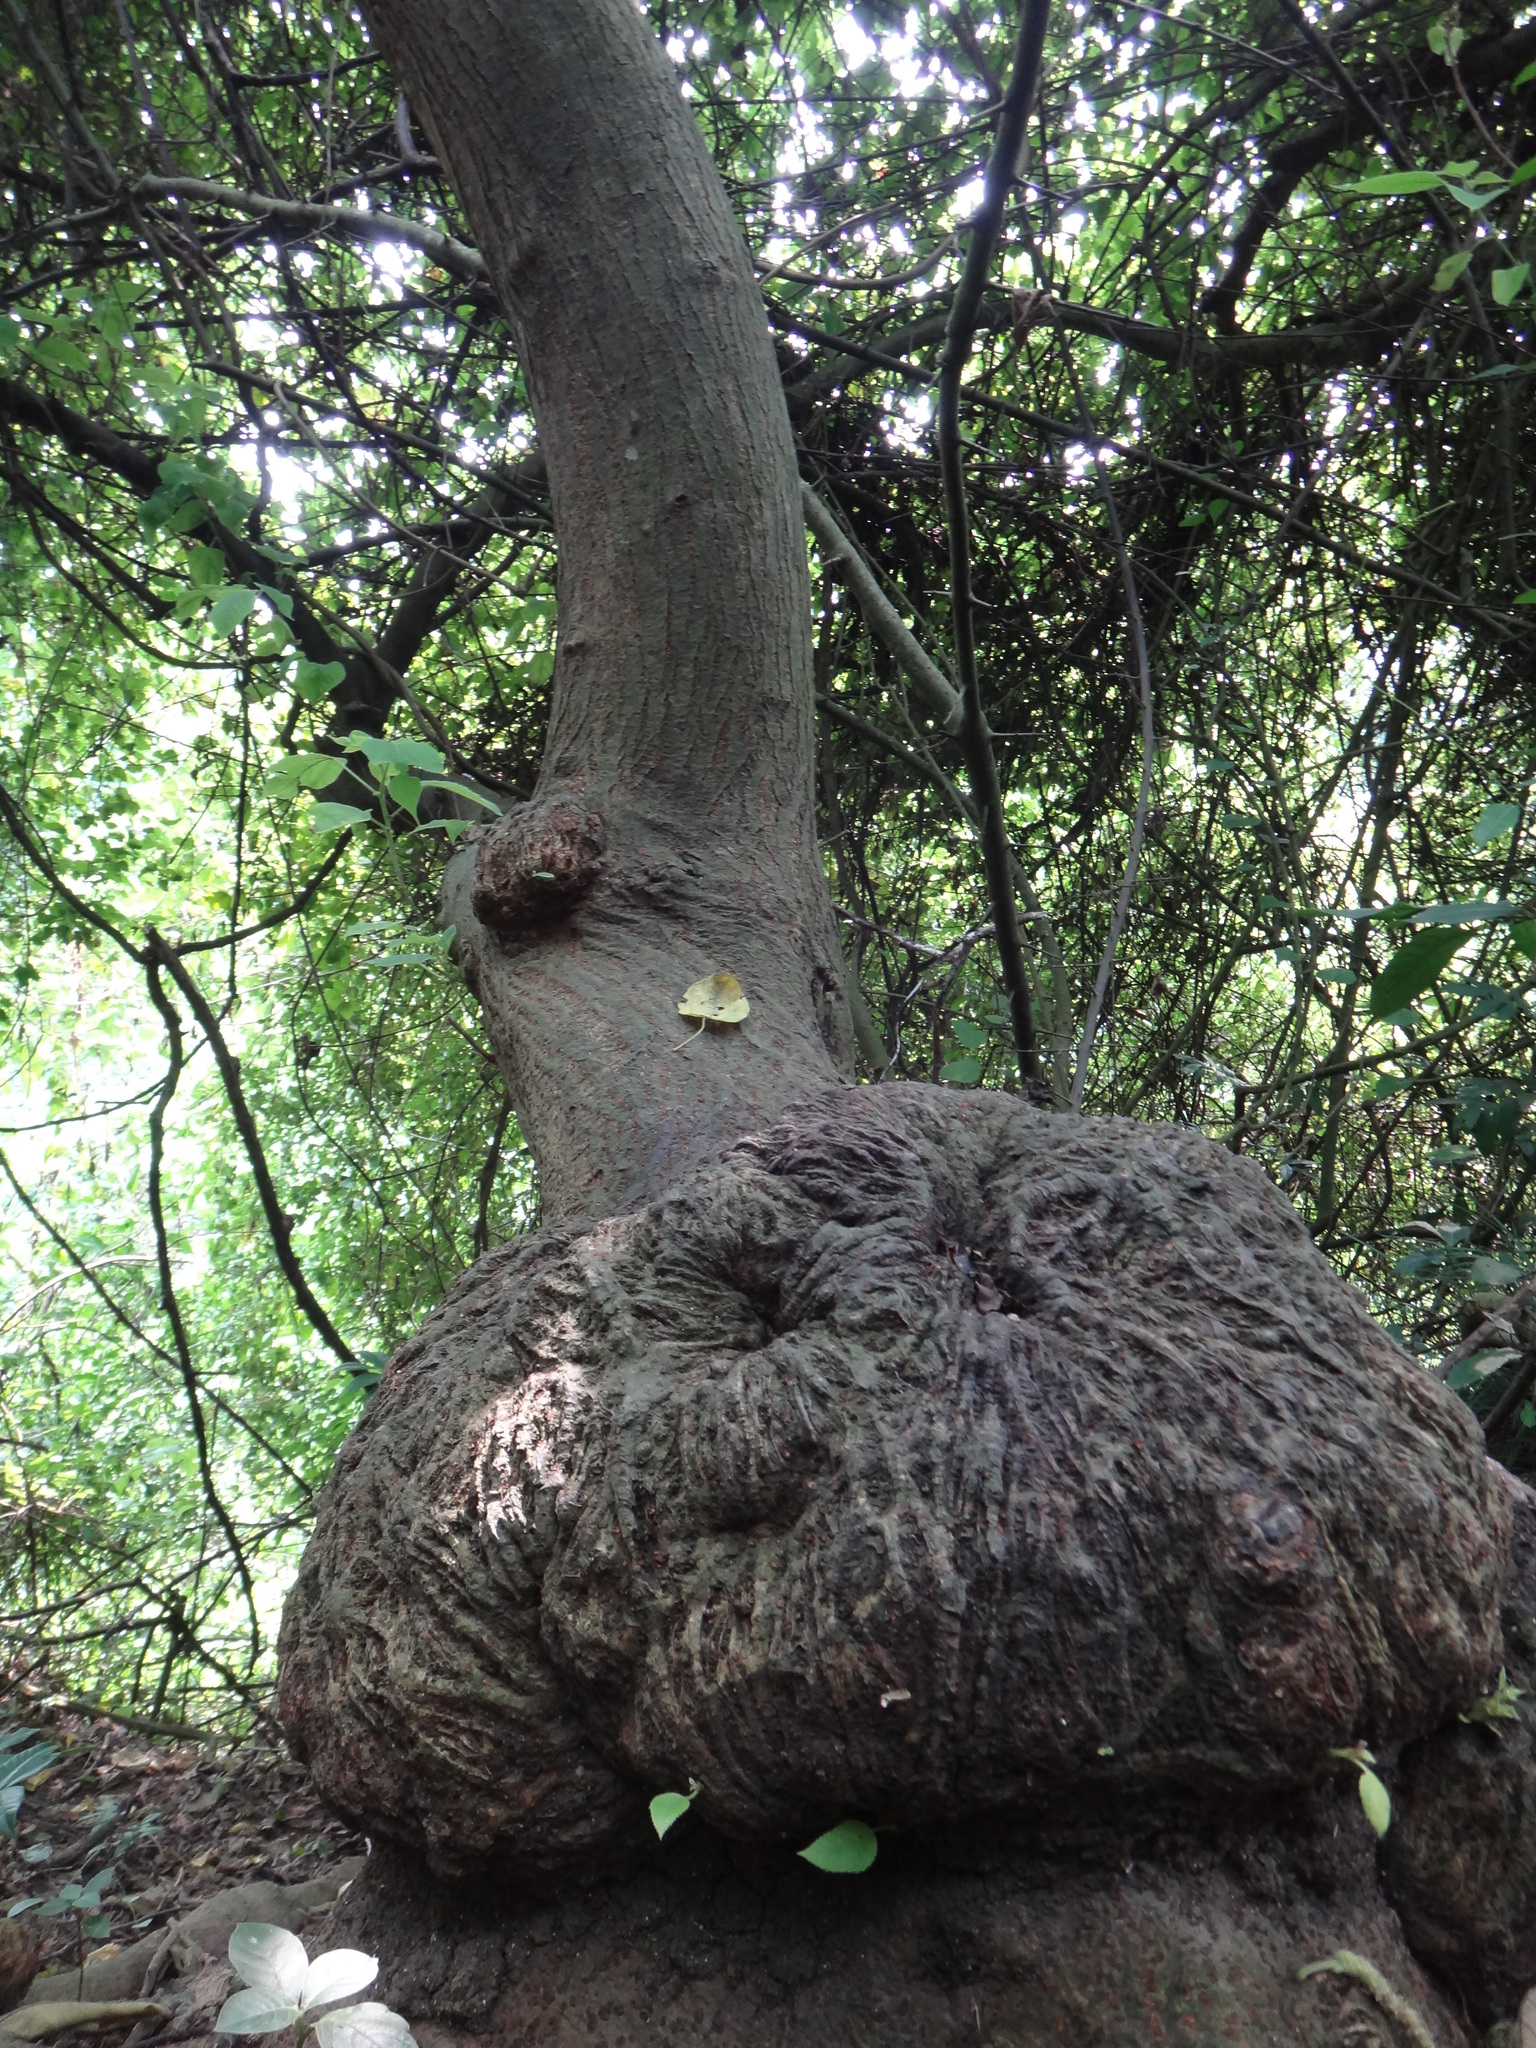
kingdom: Plantae
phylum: Tracheophyta
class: Magnoliopsida
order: Rosales
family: Moraceae
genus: Broussonetia
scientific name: Broussonetia papyrifera
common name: Paper mulberry
